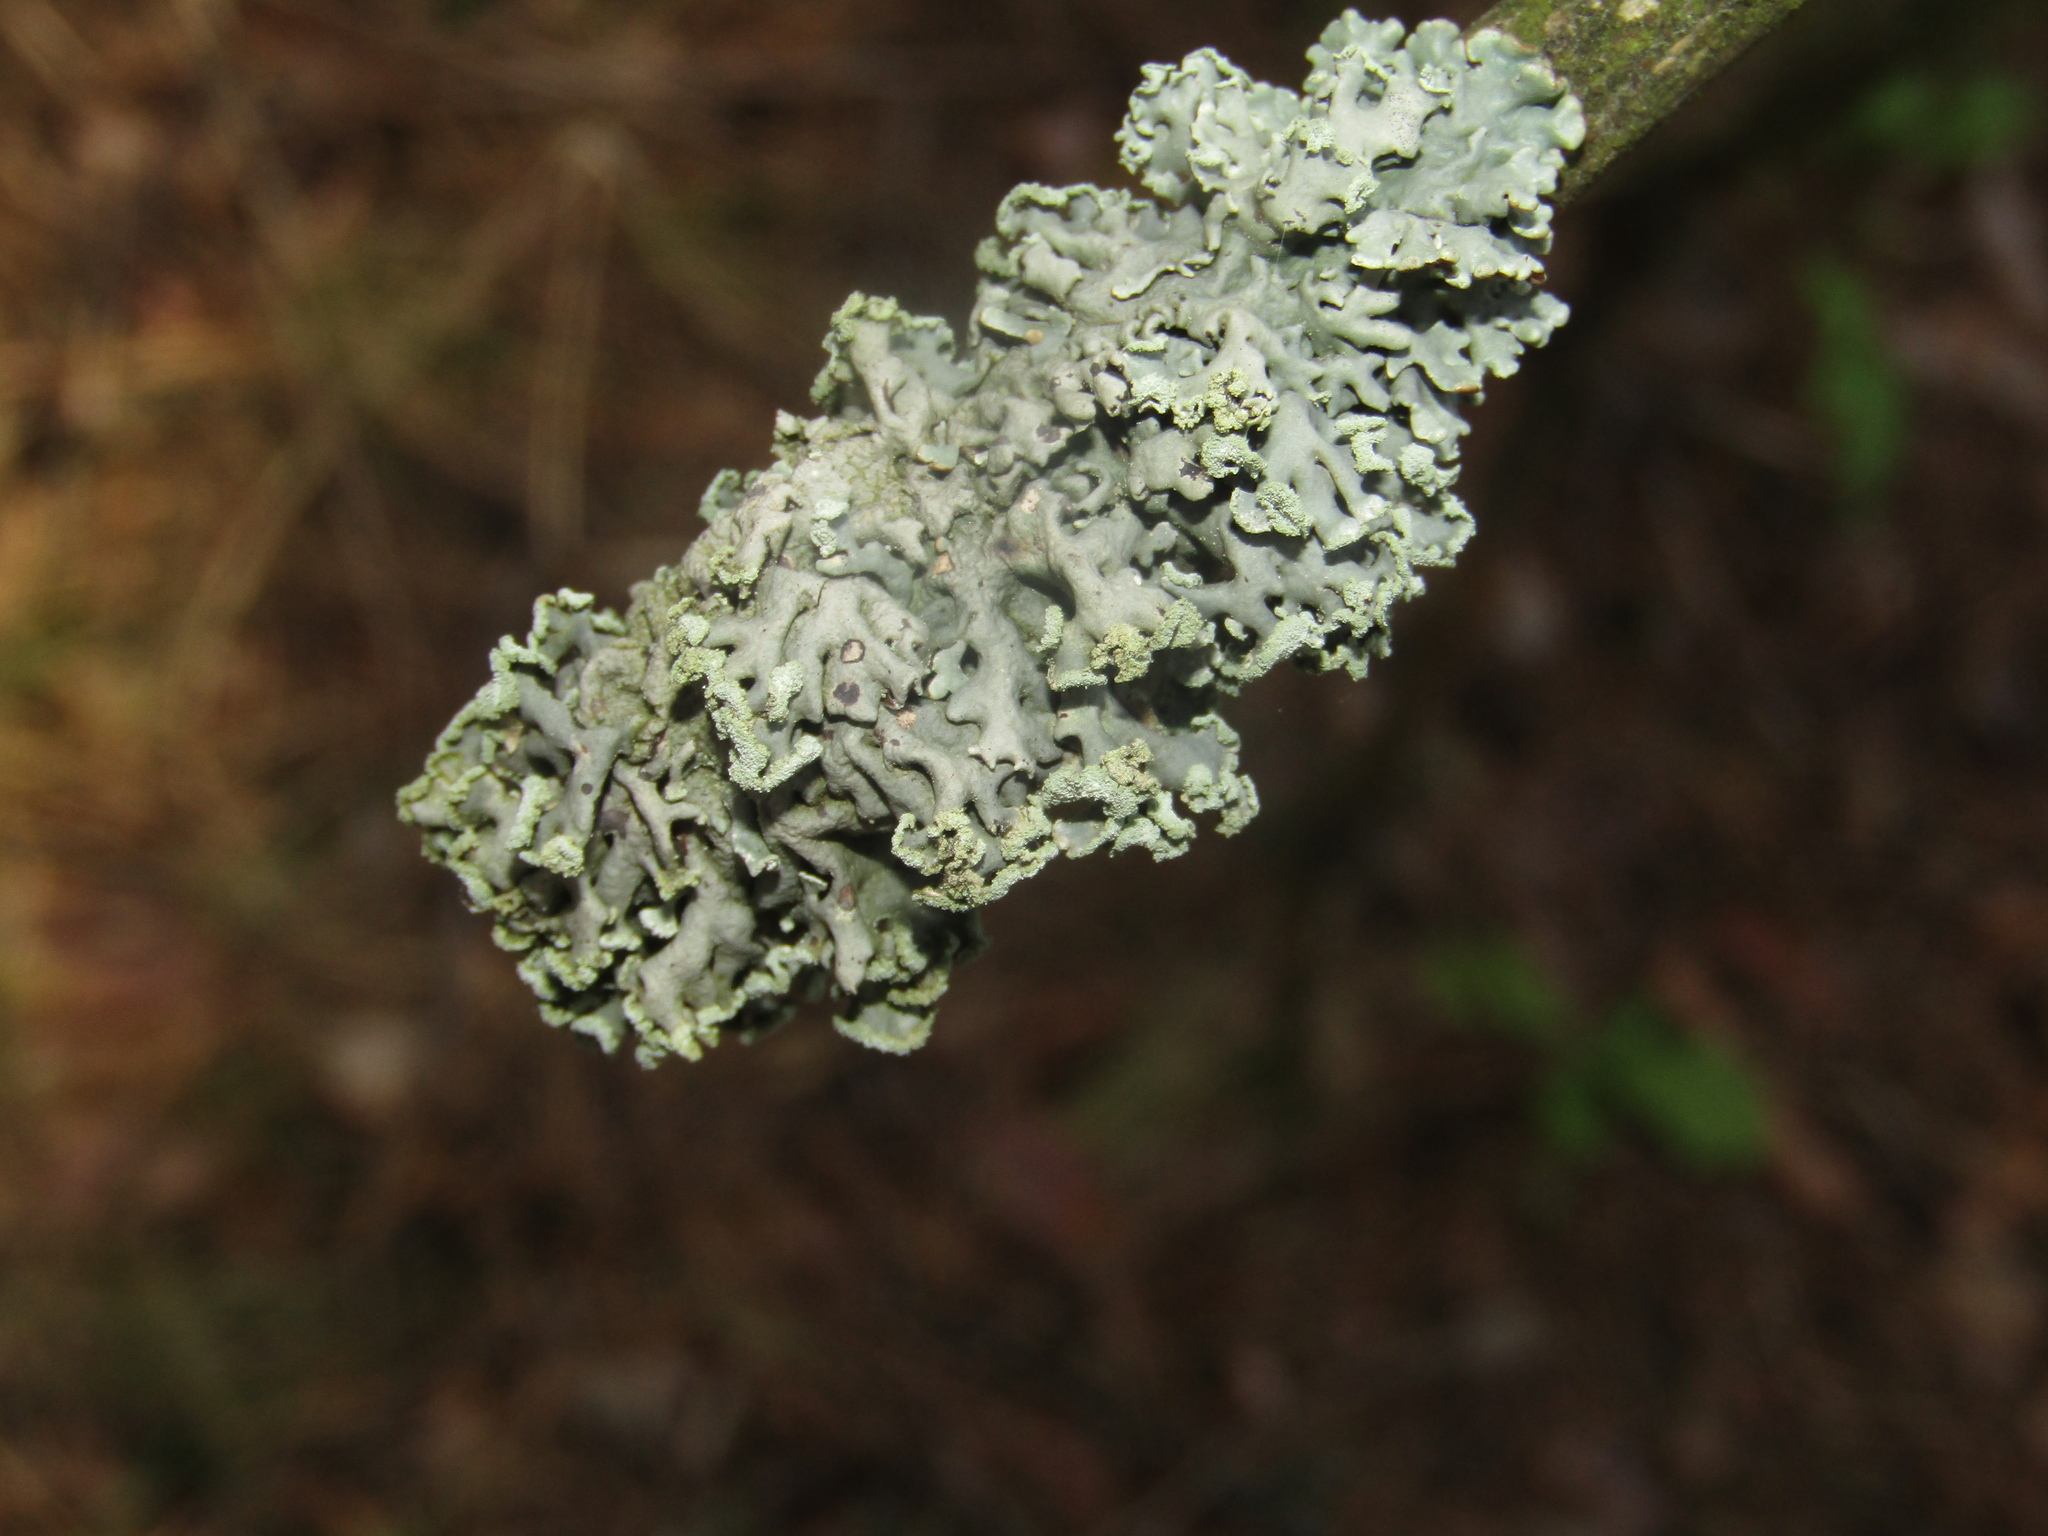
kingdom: Fungi
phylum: Ascomycota
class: Lecanoromycetes
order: Lecanorales
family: Parmeliaceae
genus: Hypogymnia
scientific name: Hypogymnia physodes
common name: Dark crottle
